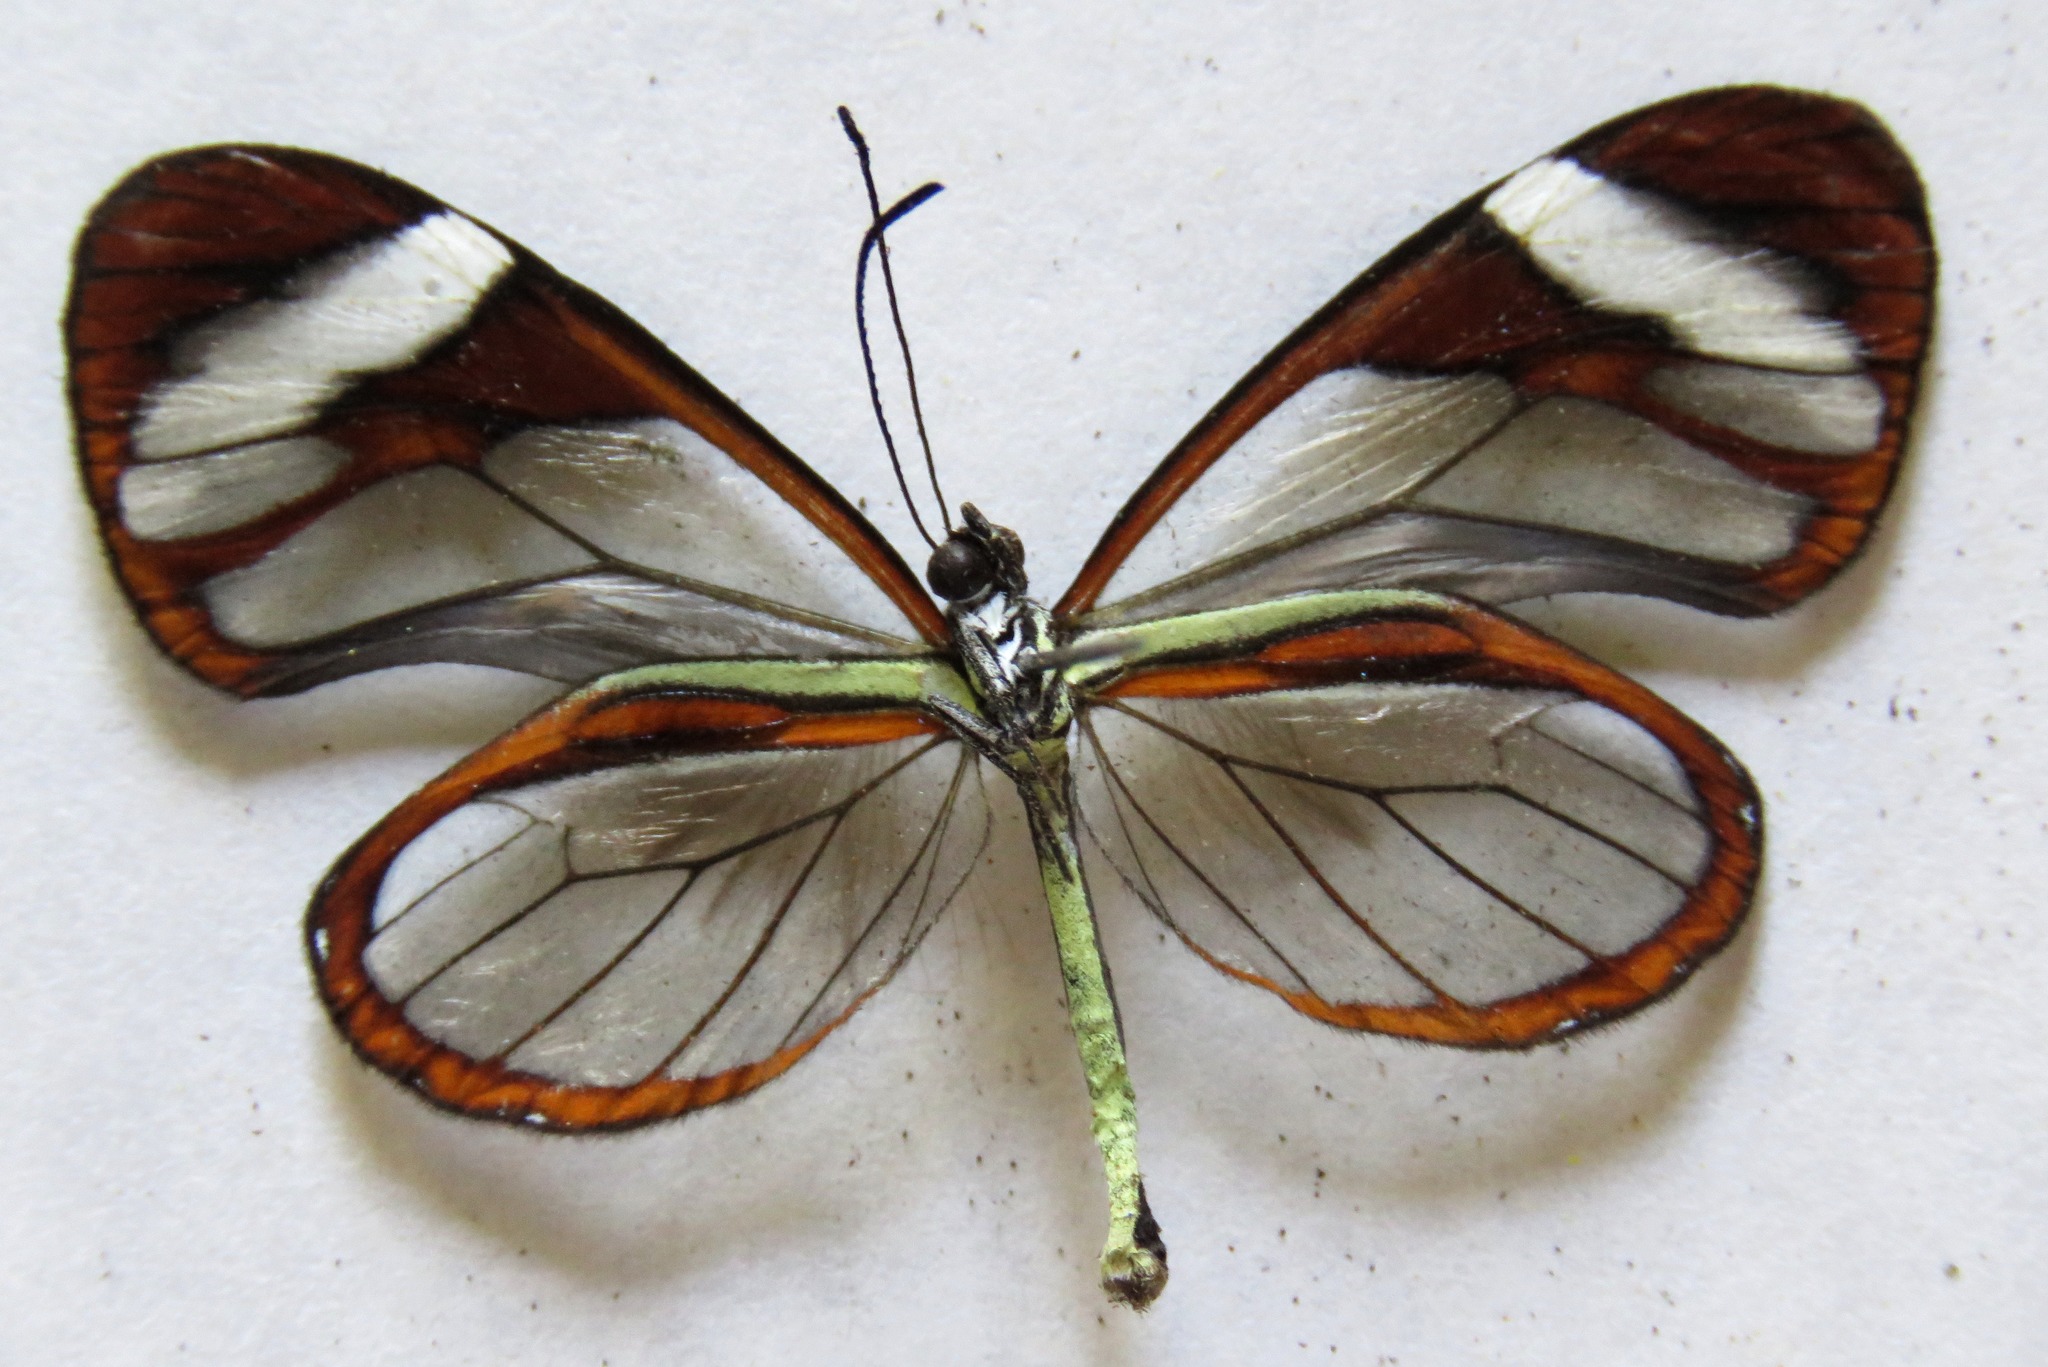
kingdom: Animalia
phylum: Arthropoda
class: Insecta
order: Lepidoptera
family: Nymphalidae
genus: Ithomia
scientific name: Ithomia patilla
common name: Patilla clearwing
